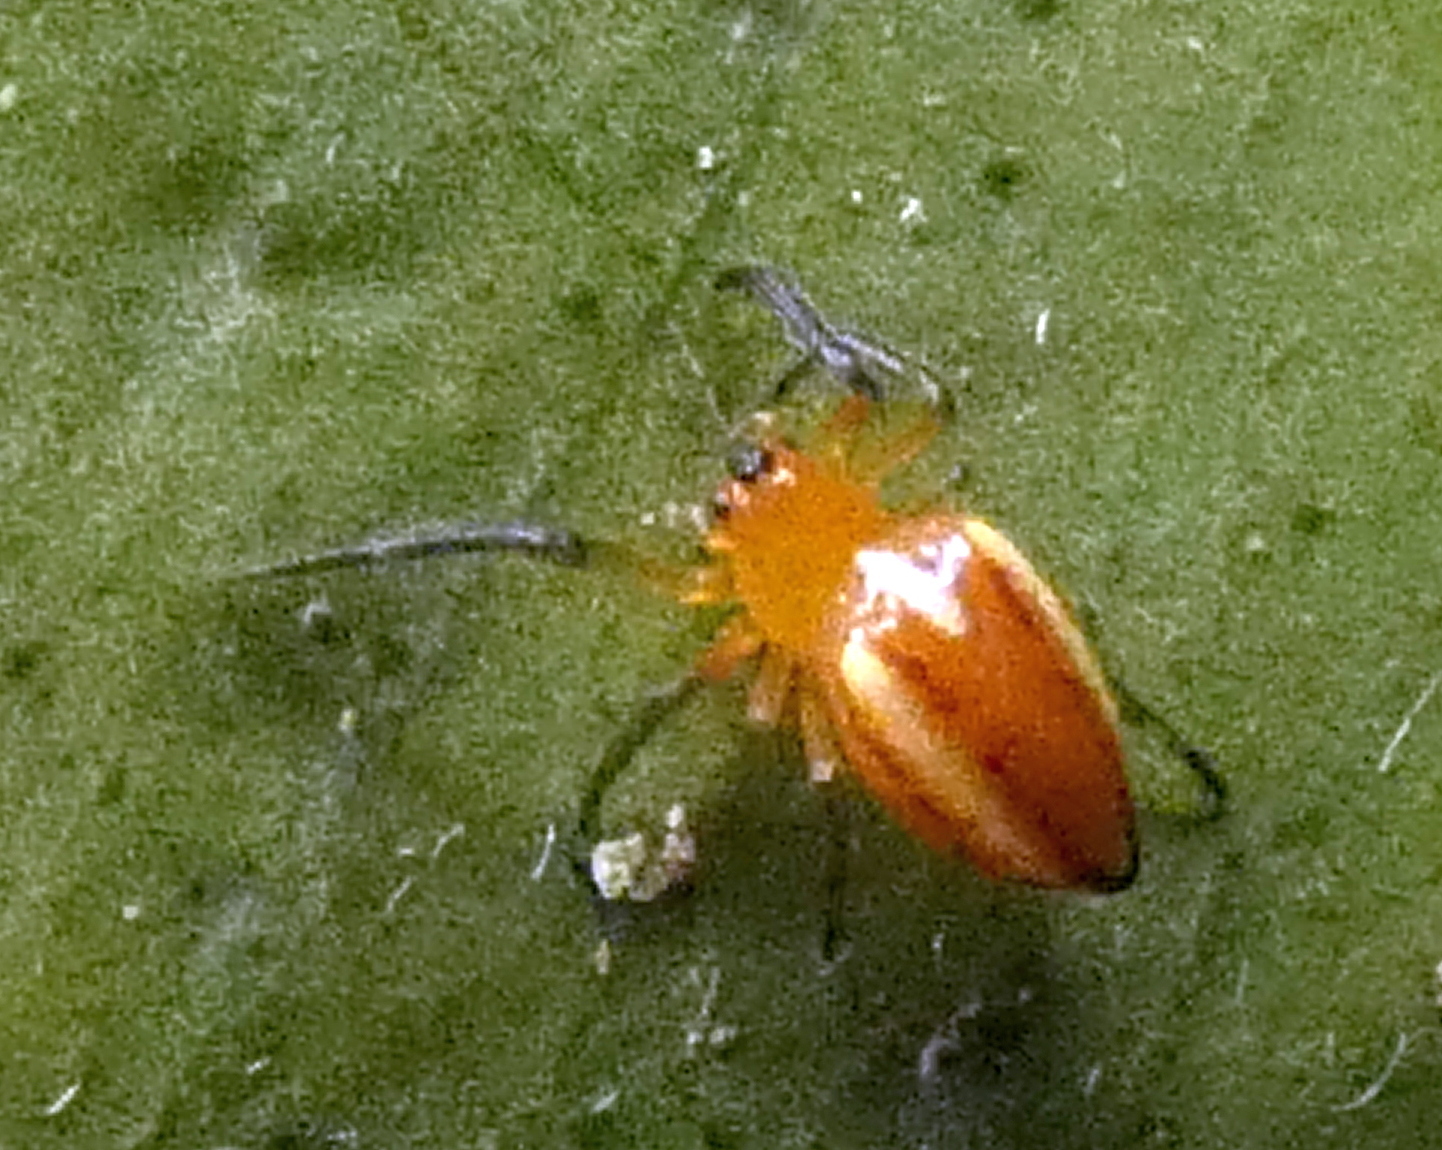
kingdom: Animalia
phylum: Arthropoda
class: Arachnida
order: Araneae
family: Araneidae
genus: Alpaida
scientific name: Alpaida bicornuta
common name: Orb weavers
